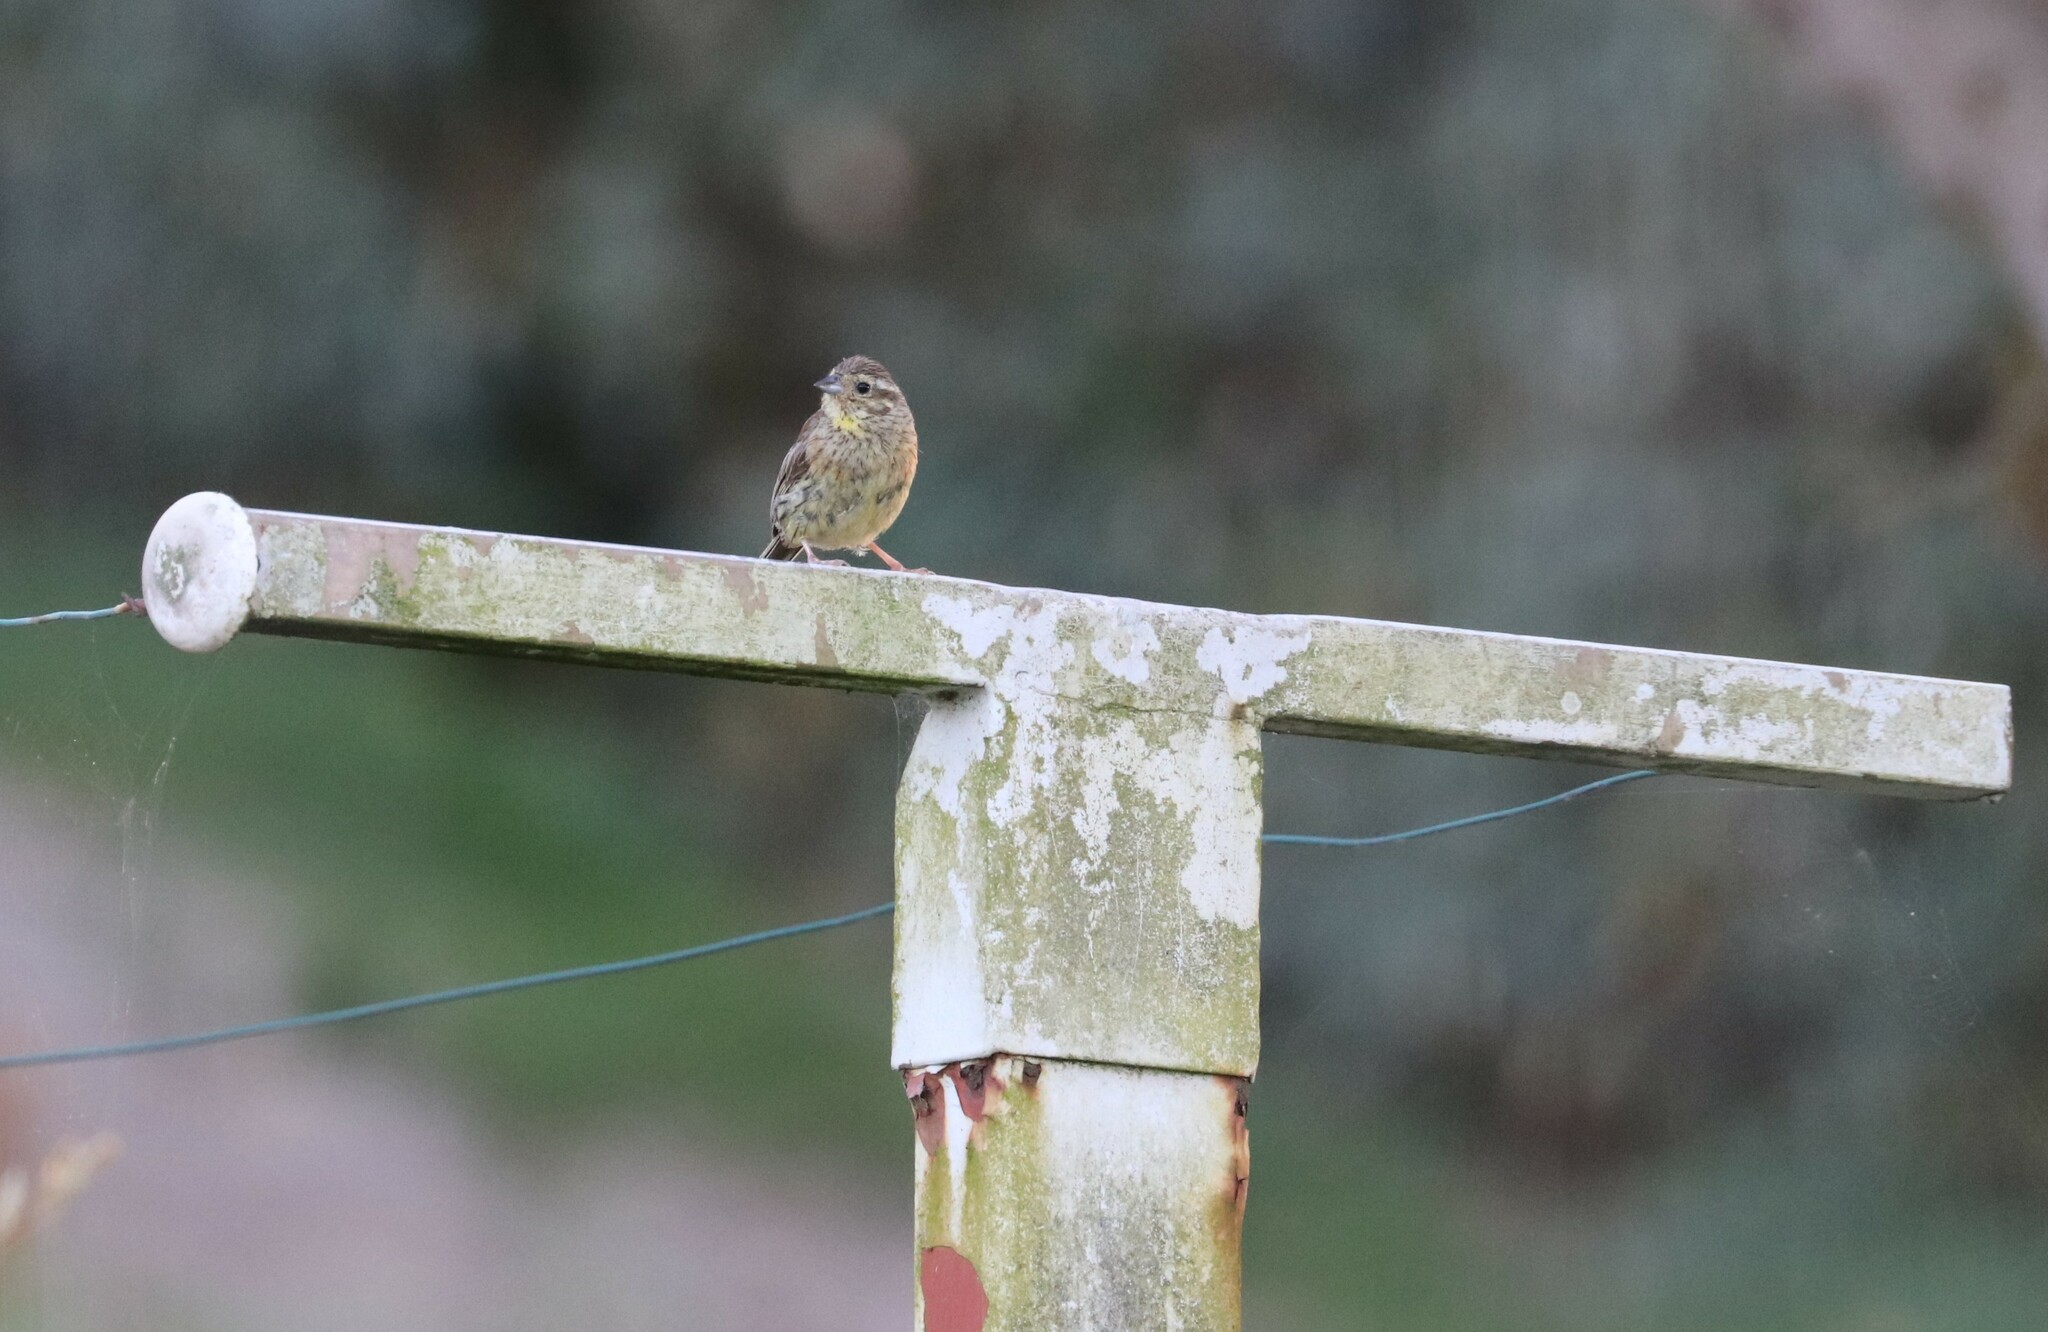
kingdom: Animalia
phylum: Chordata
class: Aves
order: Passeriformes
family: Emberizidae
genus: Emberiza
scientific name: Emberiza cirlus
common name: Cirl bunting
